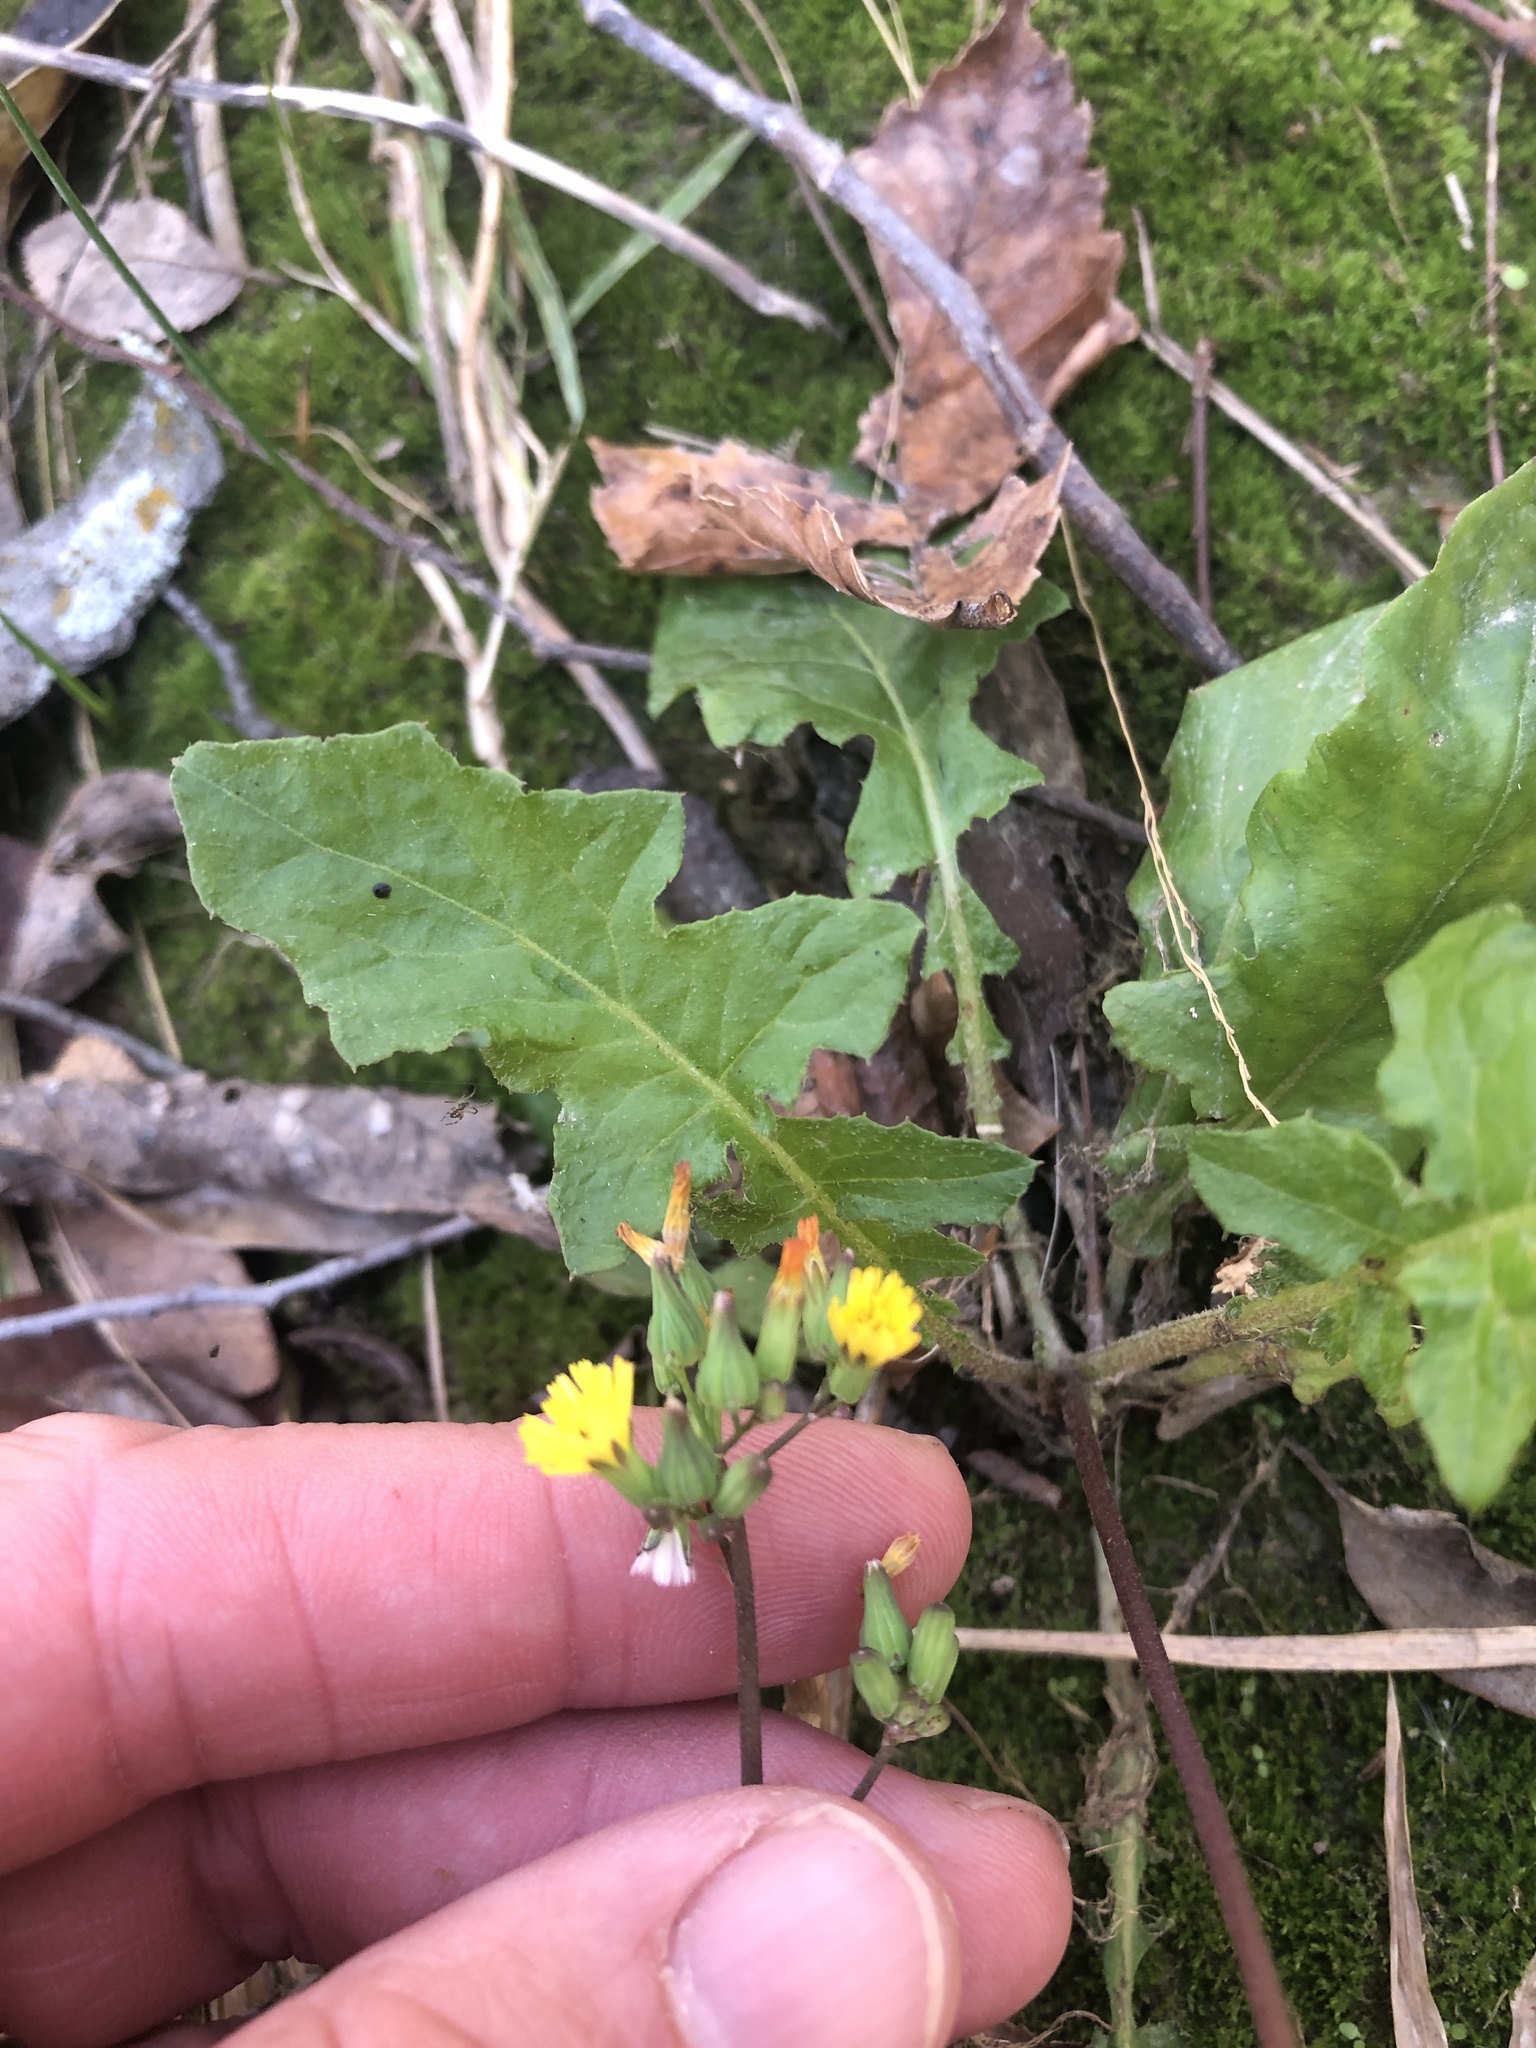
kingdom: Plantae
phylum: Tracheophyta
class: Magnoliopsida
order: Asterales
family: Asteraceae
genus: Youngia
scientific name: Youngia japonica
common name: Oriental false hawksbeard
